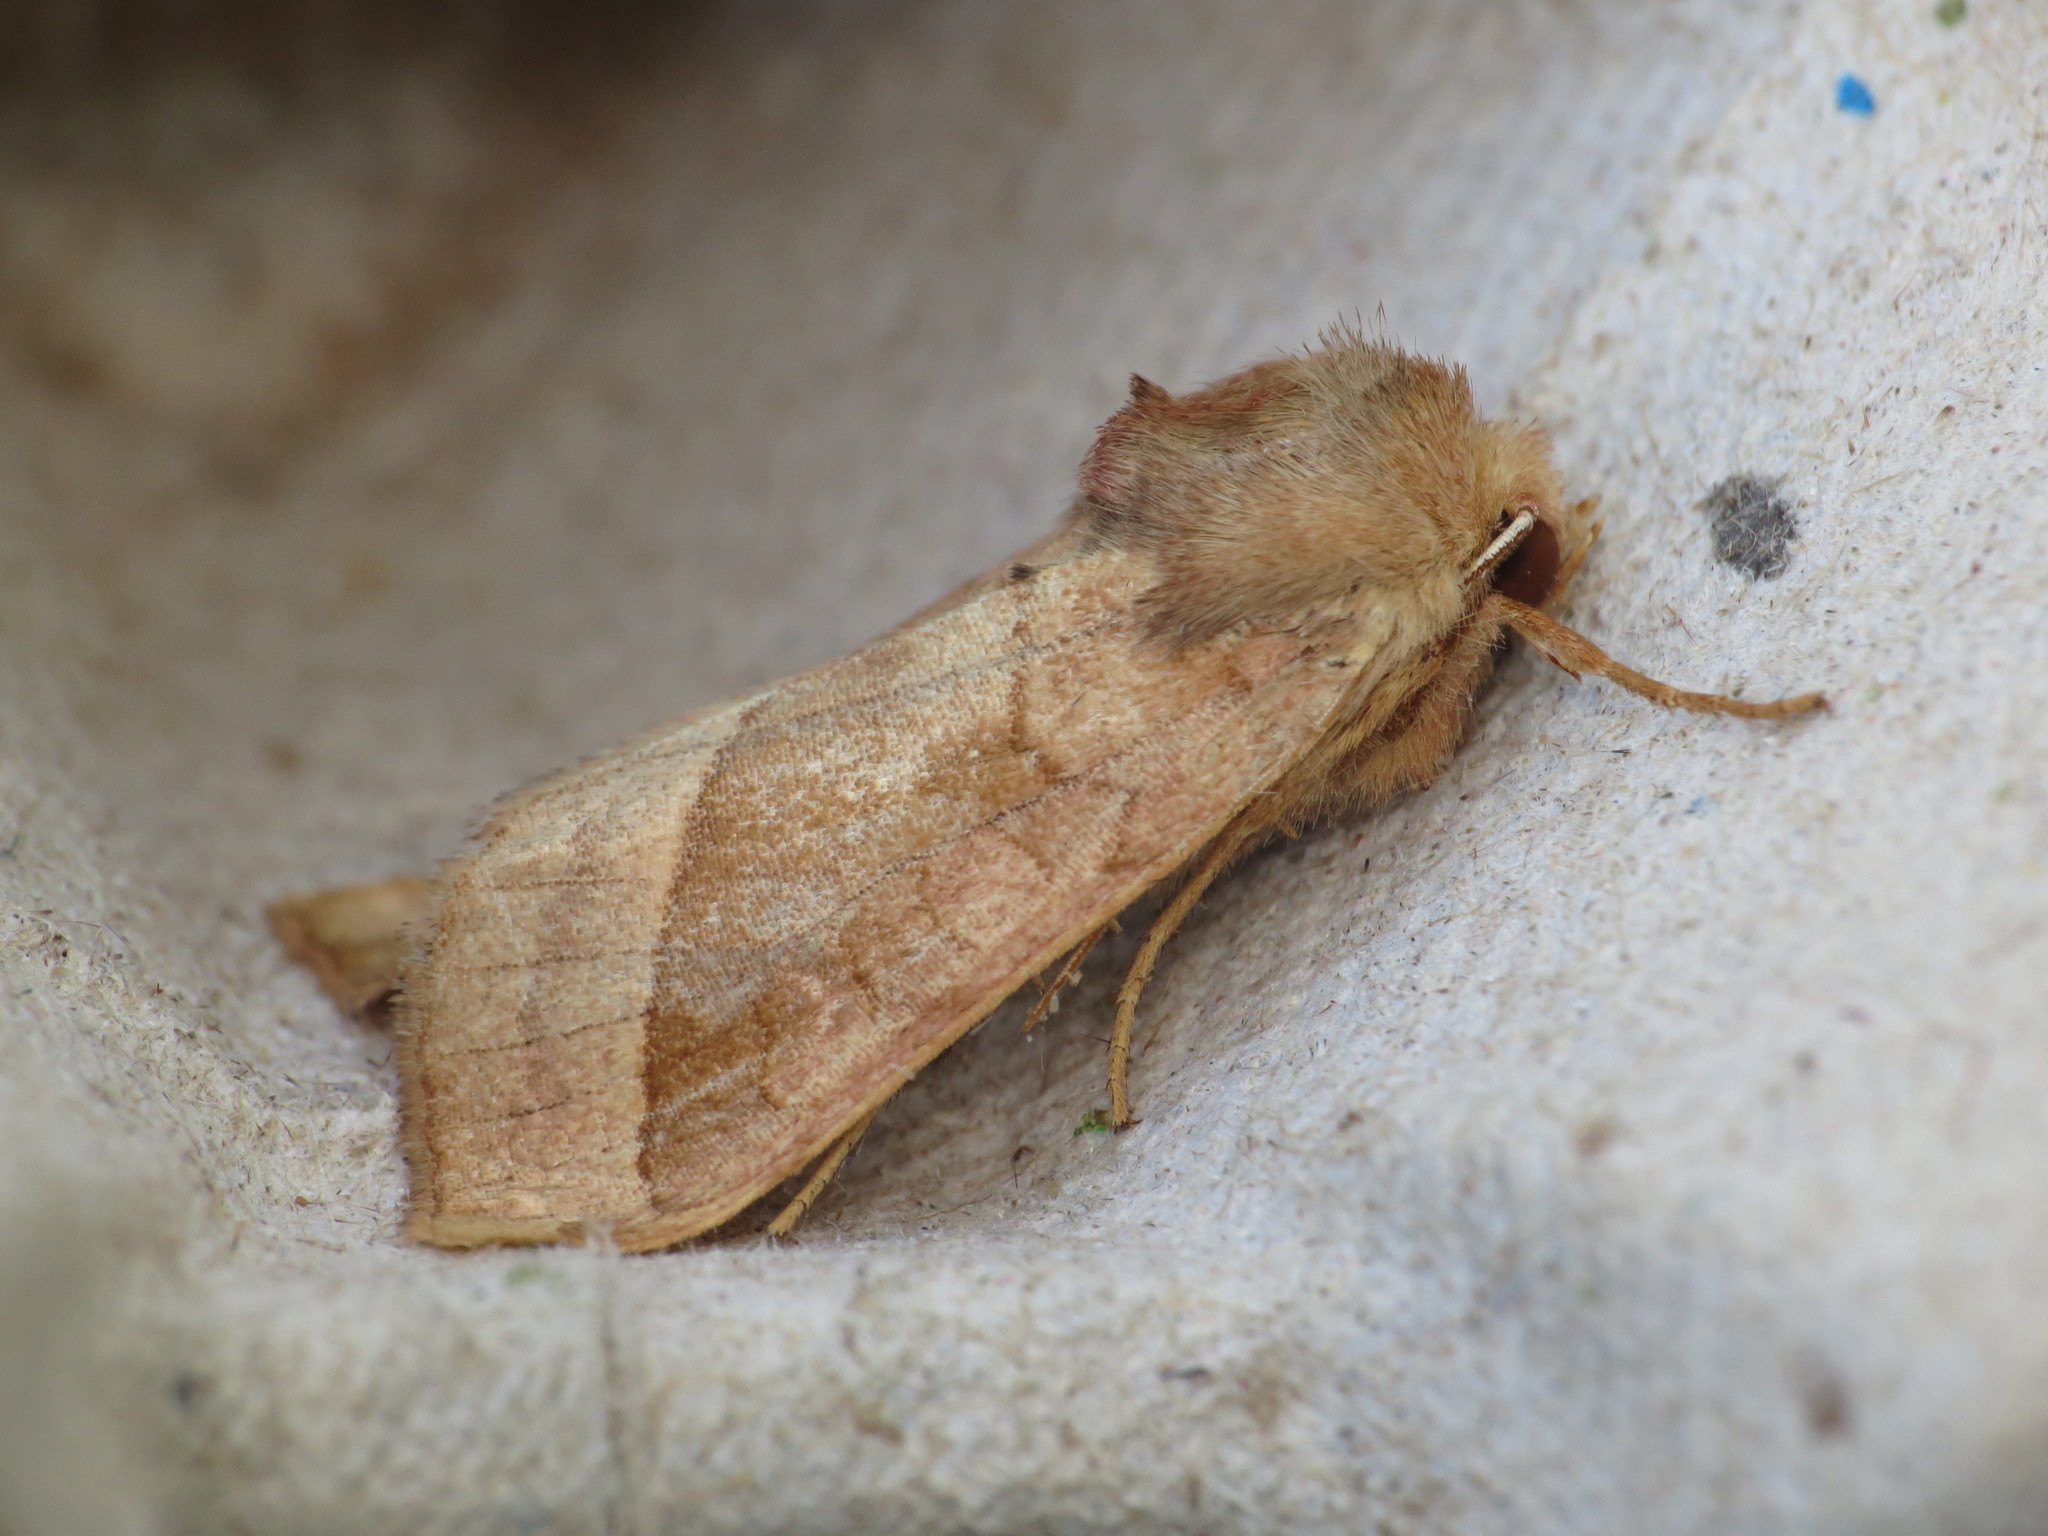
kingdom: Animalia
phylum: Arthropoda
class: Insecta
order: Lepidoptera
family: Noctuidae
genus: Hydraecia
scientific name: Hydraecia micacea
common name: Rosy rustic
